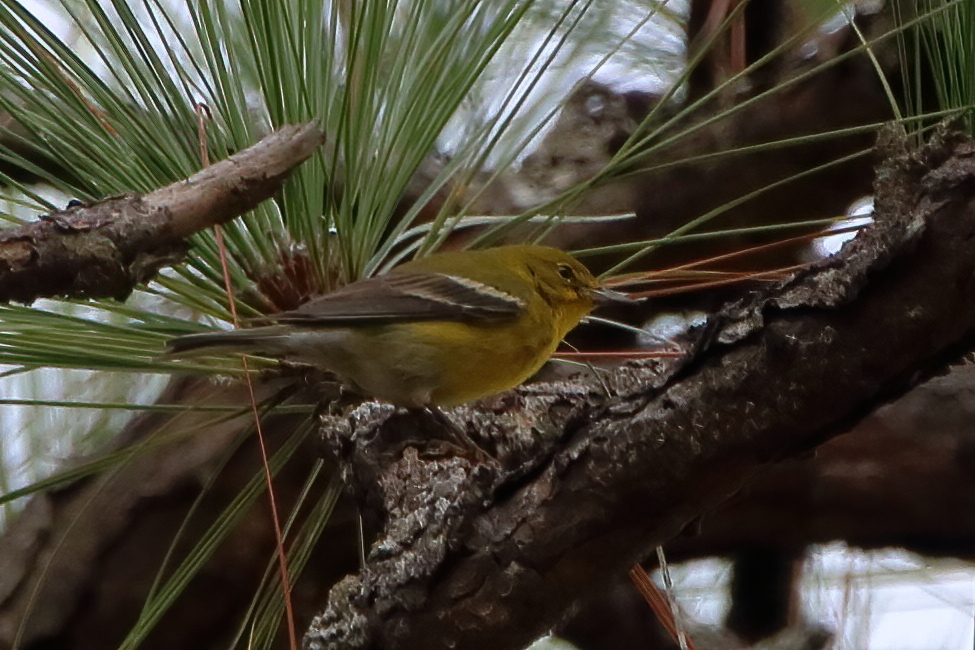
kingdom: Animalia
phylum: Chordata
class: Aves
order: Passeriformes
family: Parulidae
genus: Setophaga
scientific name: Setophaga pinus
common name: Pine warbler
